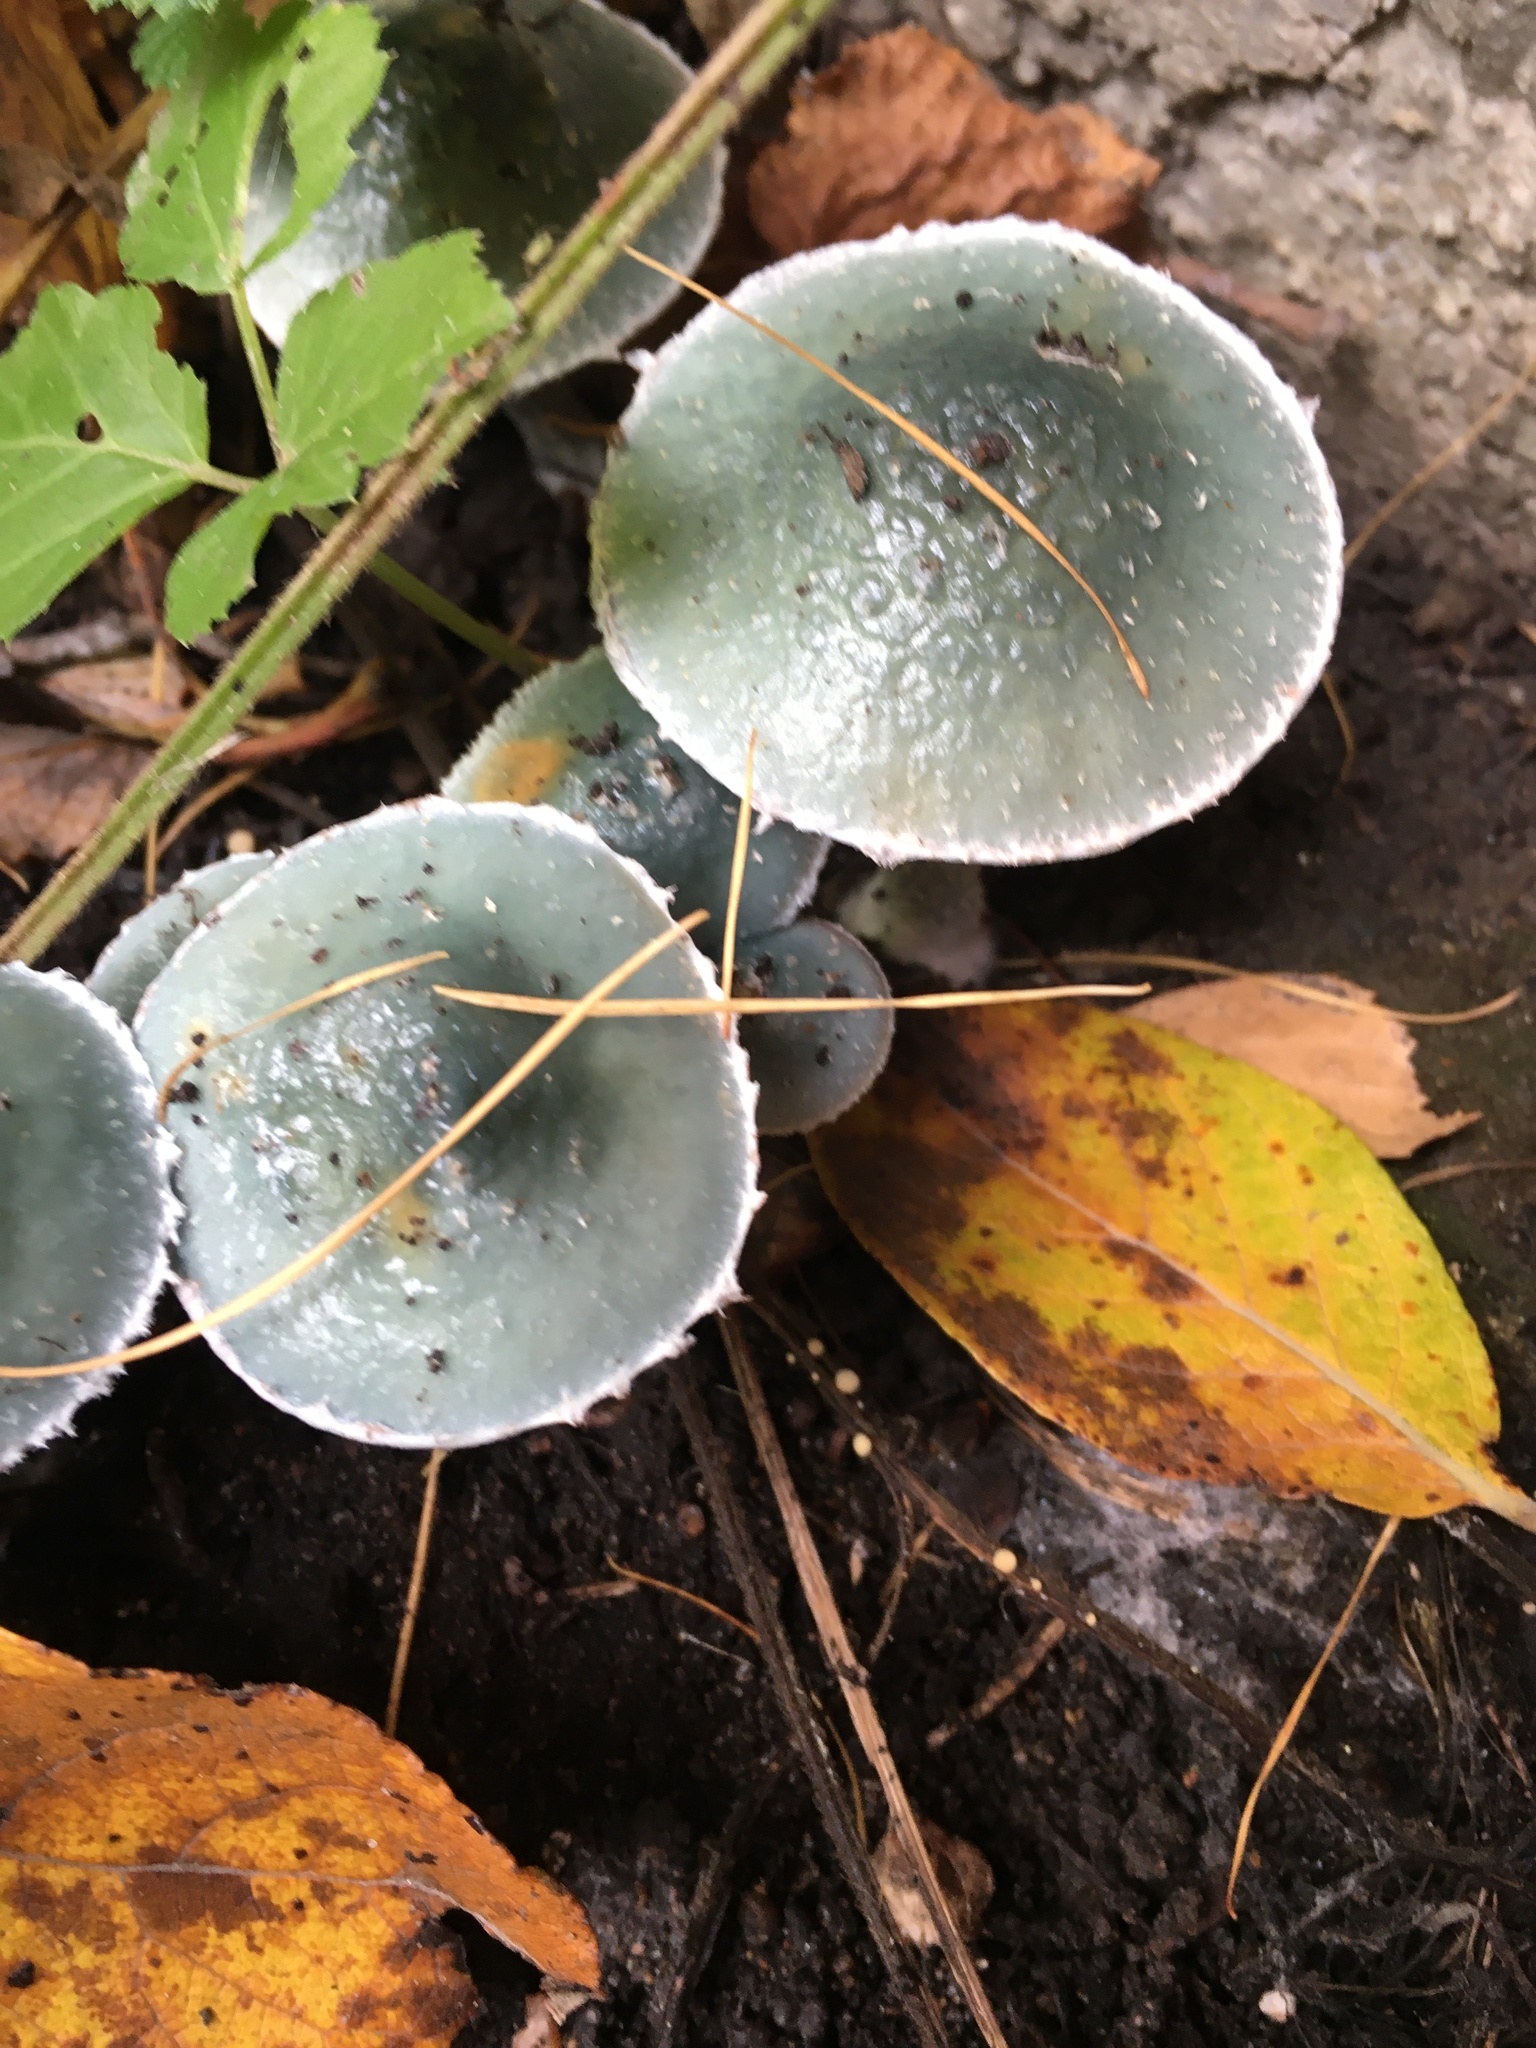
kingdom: Fungi
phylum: Basidiomycota
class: Agaricomycetes
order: Agaricales
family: Strophariaceae
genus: Stropharia
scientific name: Stropharia aeruginosa
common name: Verdigris roundhead
